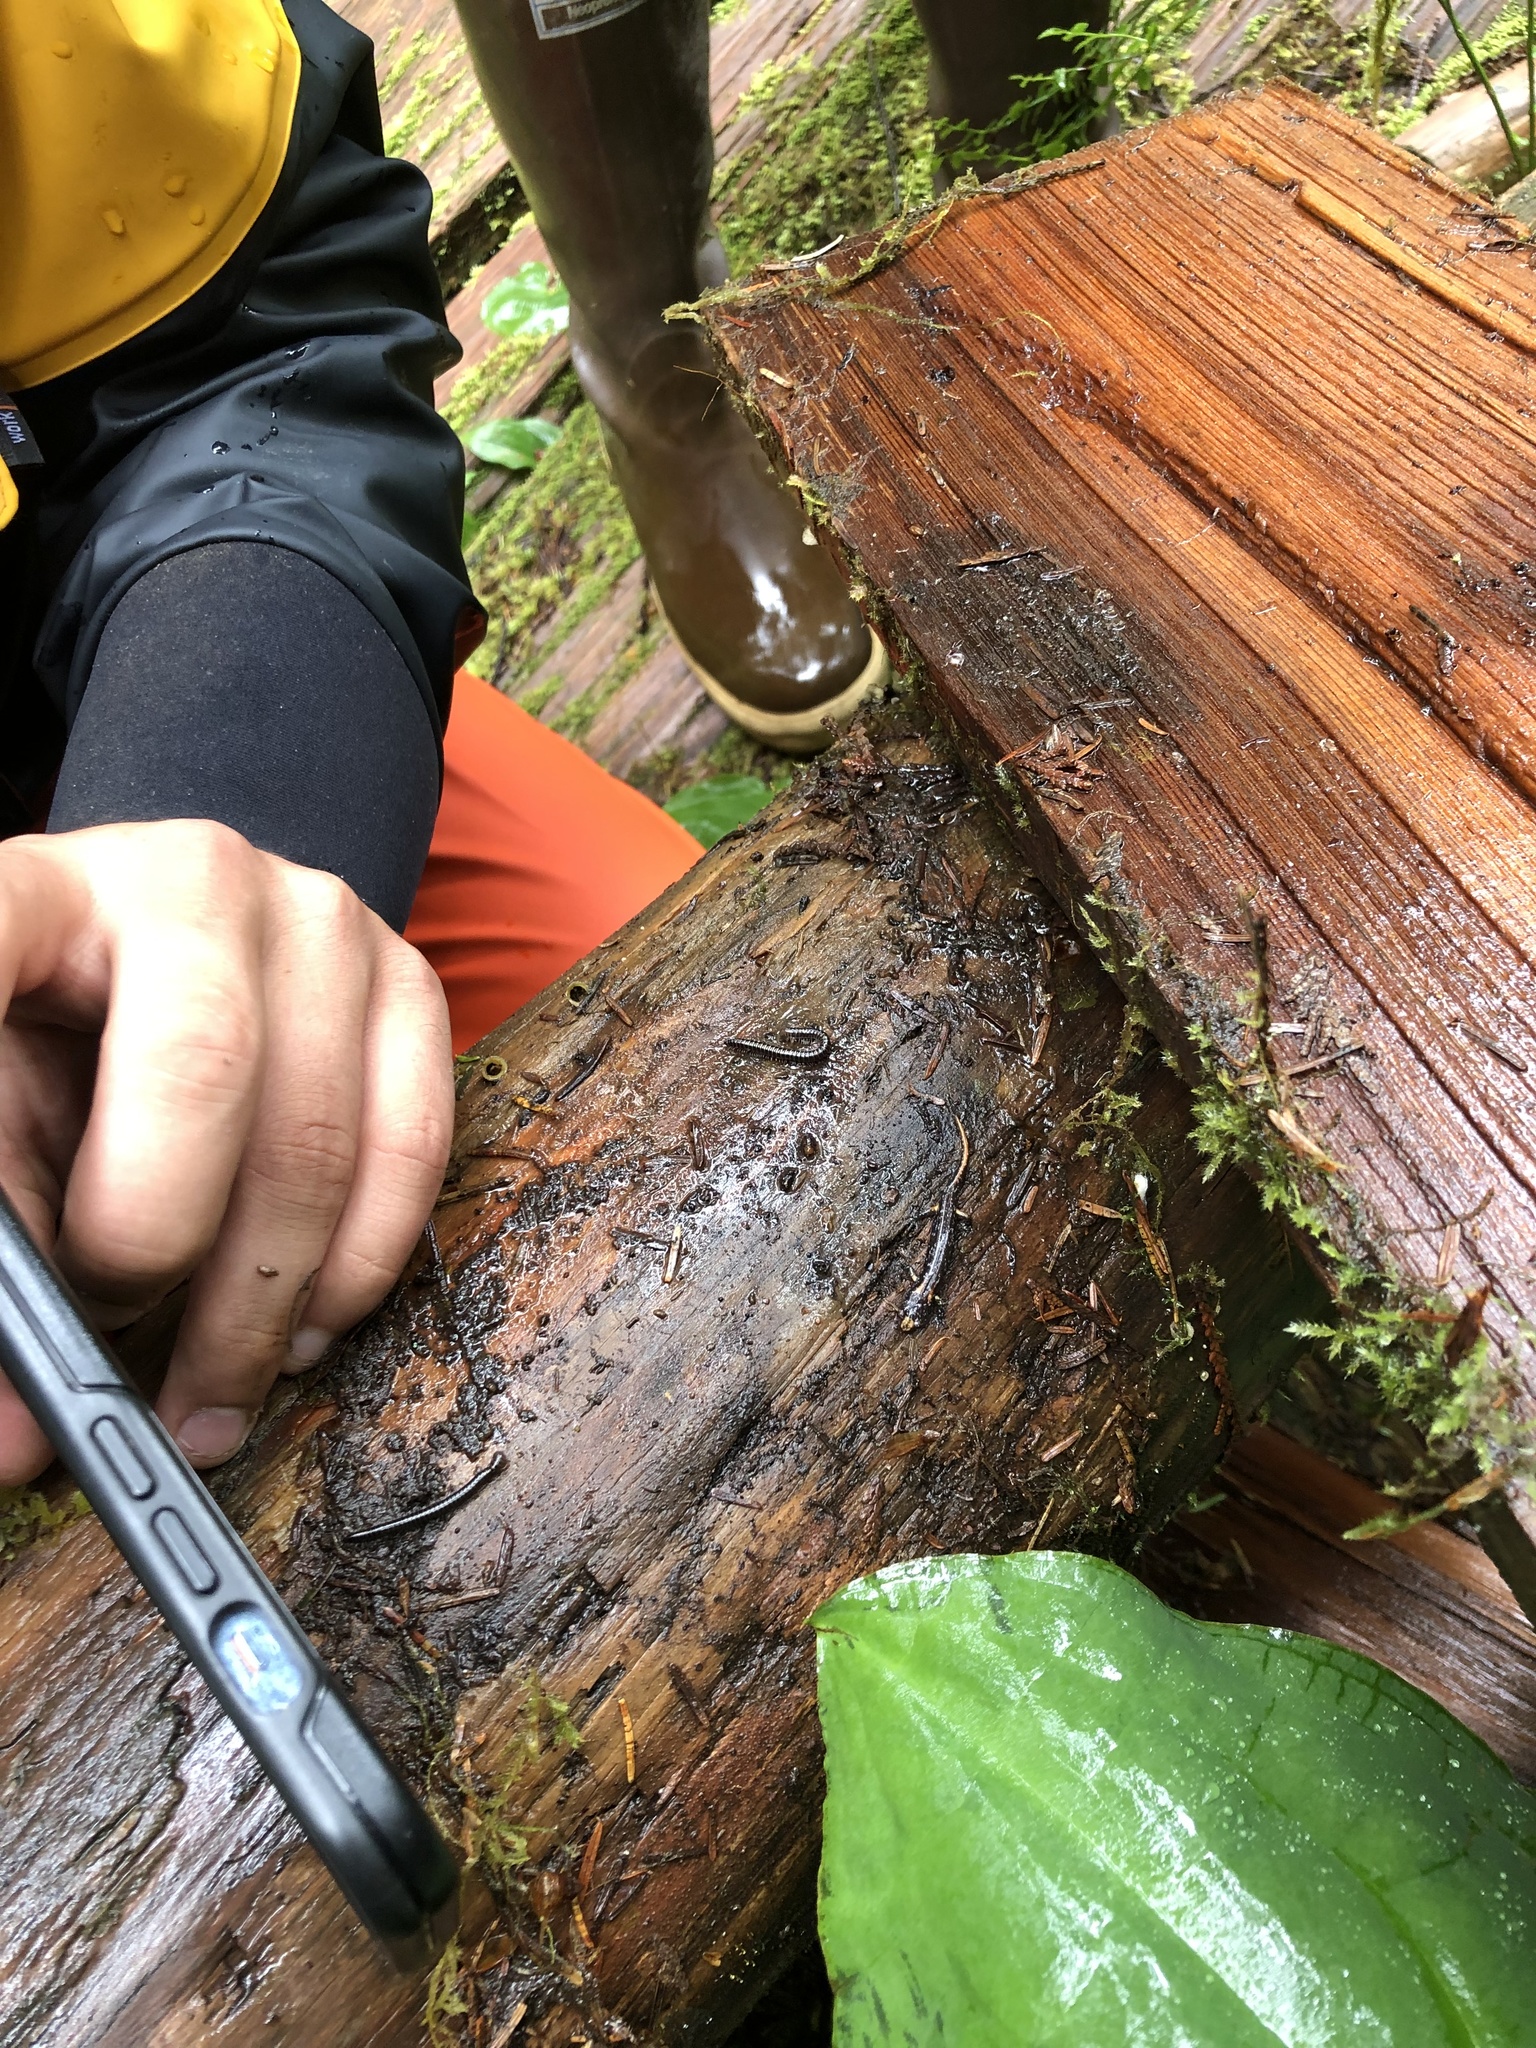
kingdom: Animalia
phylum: Chordata
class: Amphibia
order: Caudata
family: Plethodontidae
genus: Aneides
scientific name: Aneides vagrans
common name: Wandering salamander
